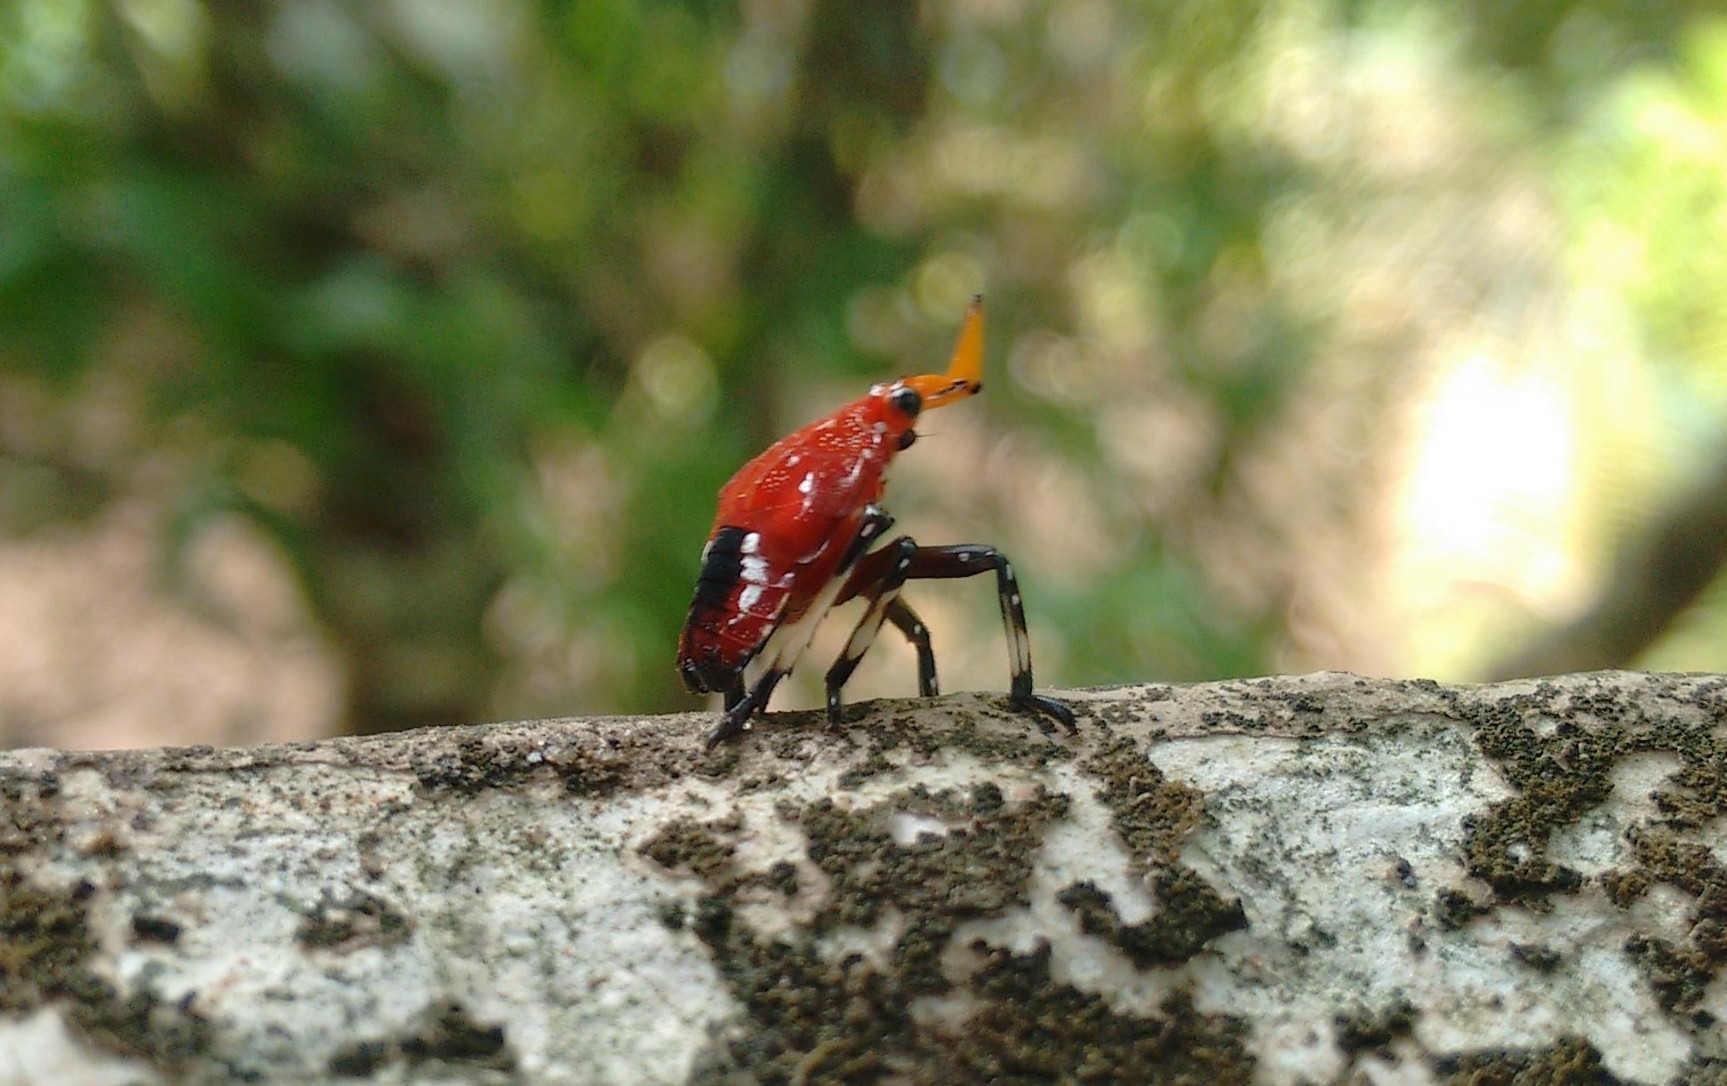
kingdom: Animalia
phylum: Arthropoda
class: Insecta
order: Hemiptera
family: Fulgoridae
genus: Kalidasa
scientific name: Kalidasa lanata
